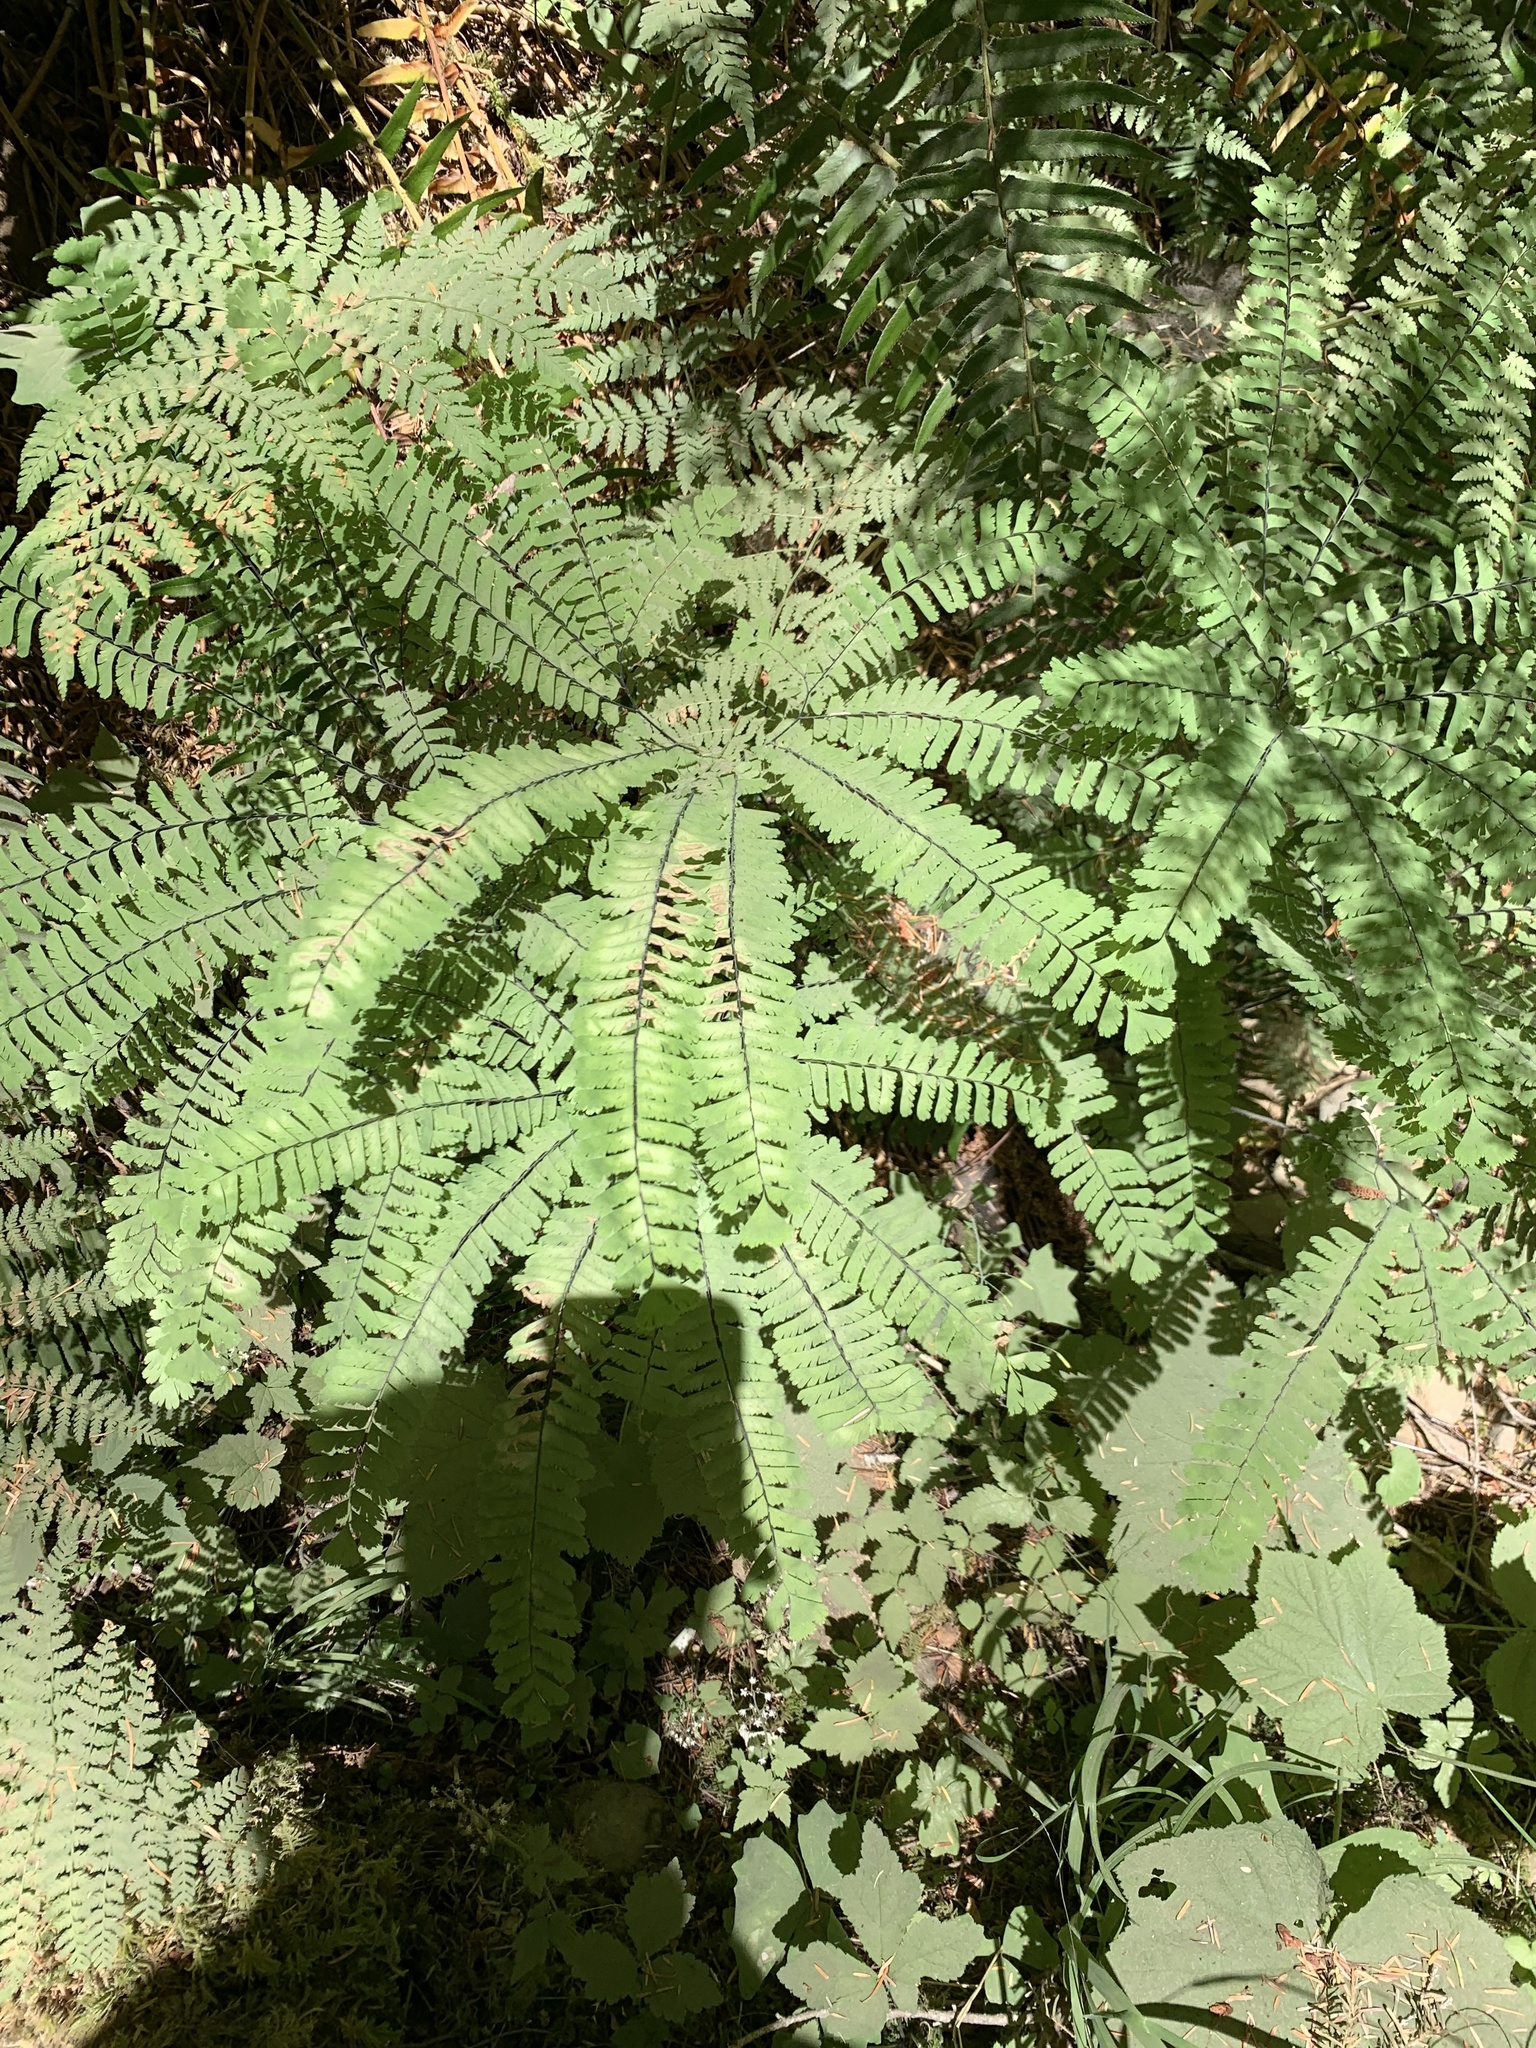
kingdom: Plantae
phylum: Tracheophyta
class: Polypodiopsida
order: Polypodiales
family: Pteridaceae
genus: Adiantum
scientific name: Adiantum aleuticum
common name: Aleutian maidenhair fern
